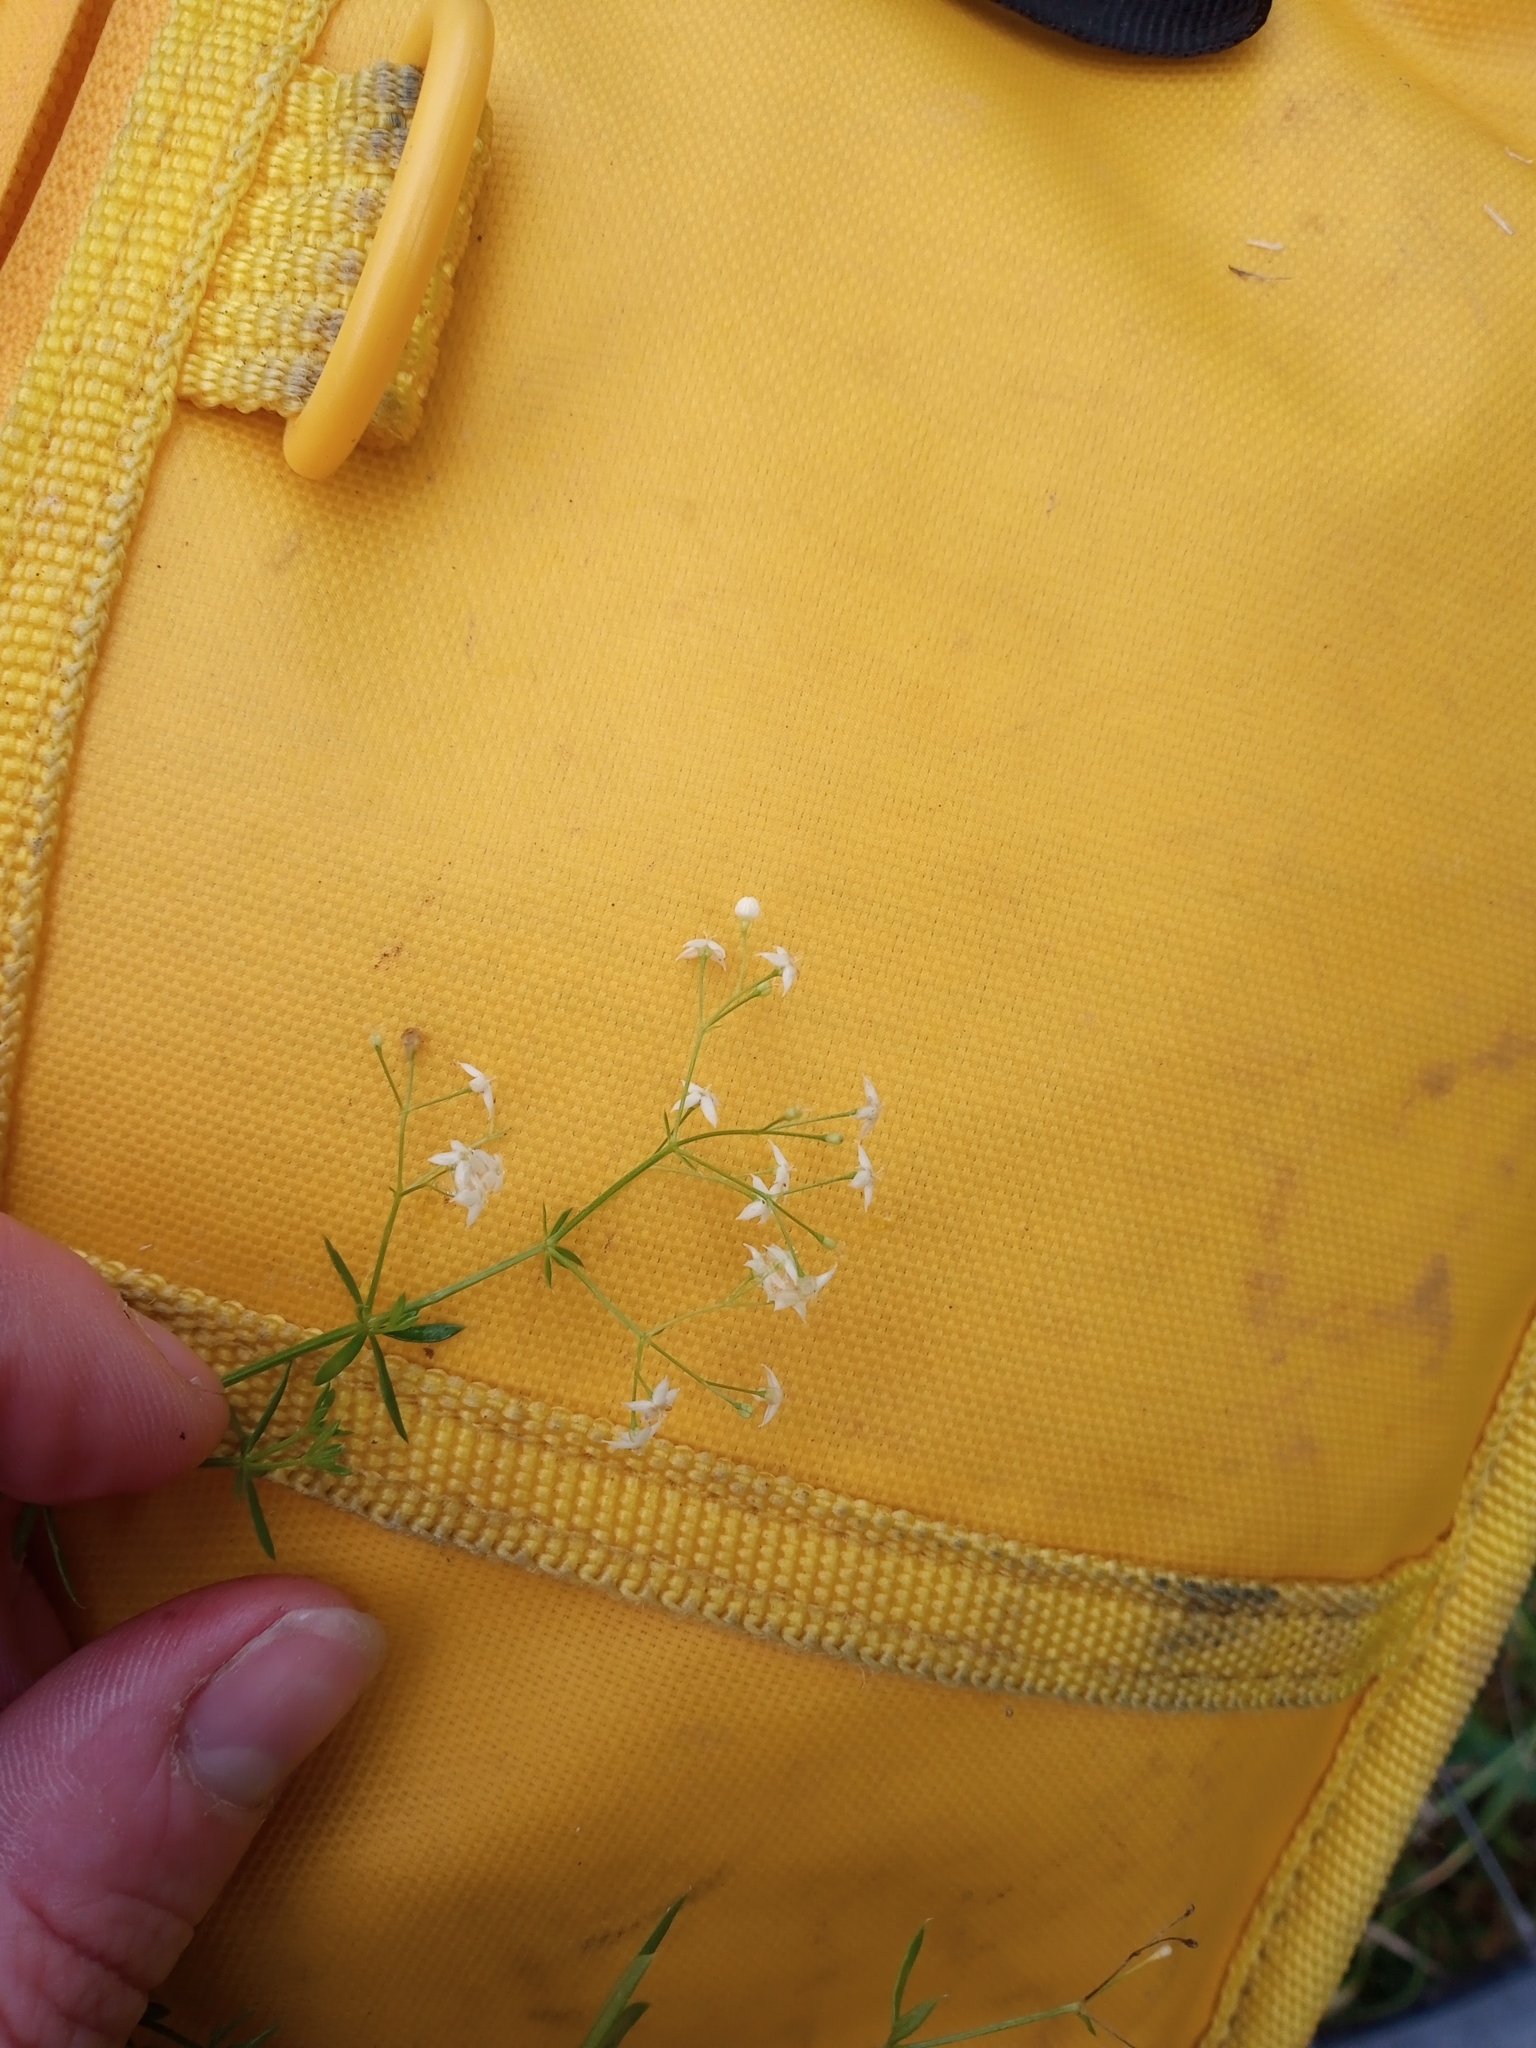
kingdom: Plantae
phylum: Tracheophyta
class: Magnoliopsida
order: Gentianales
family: Rubiaceae
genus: Galium
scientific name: Galium mollugo
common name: Hedge bedstraw
